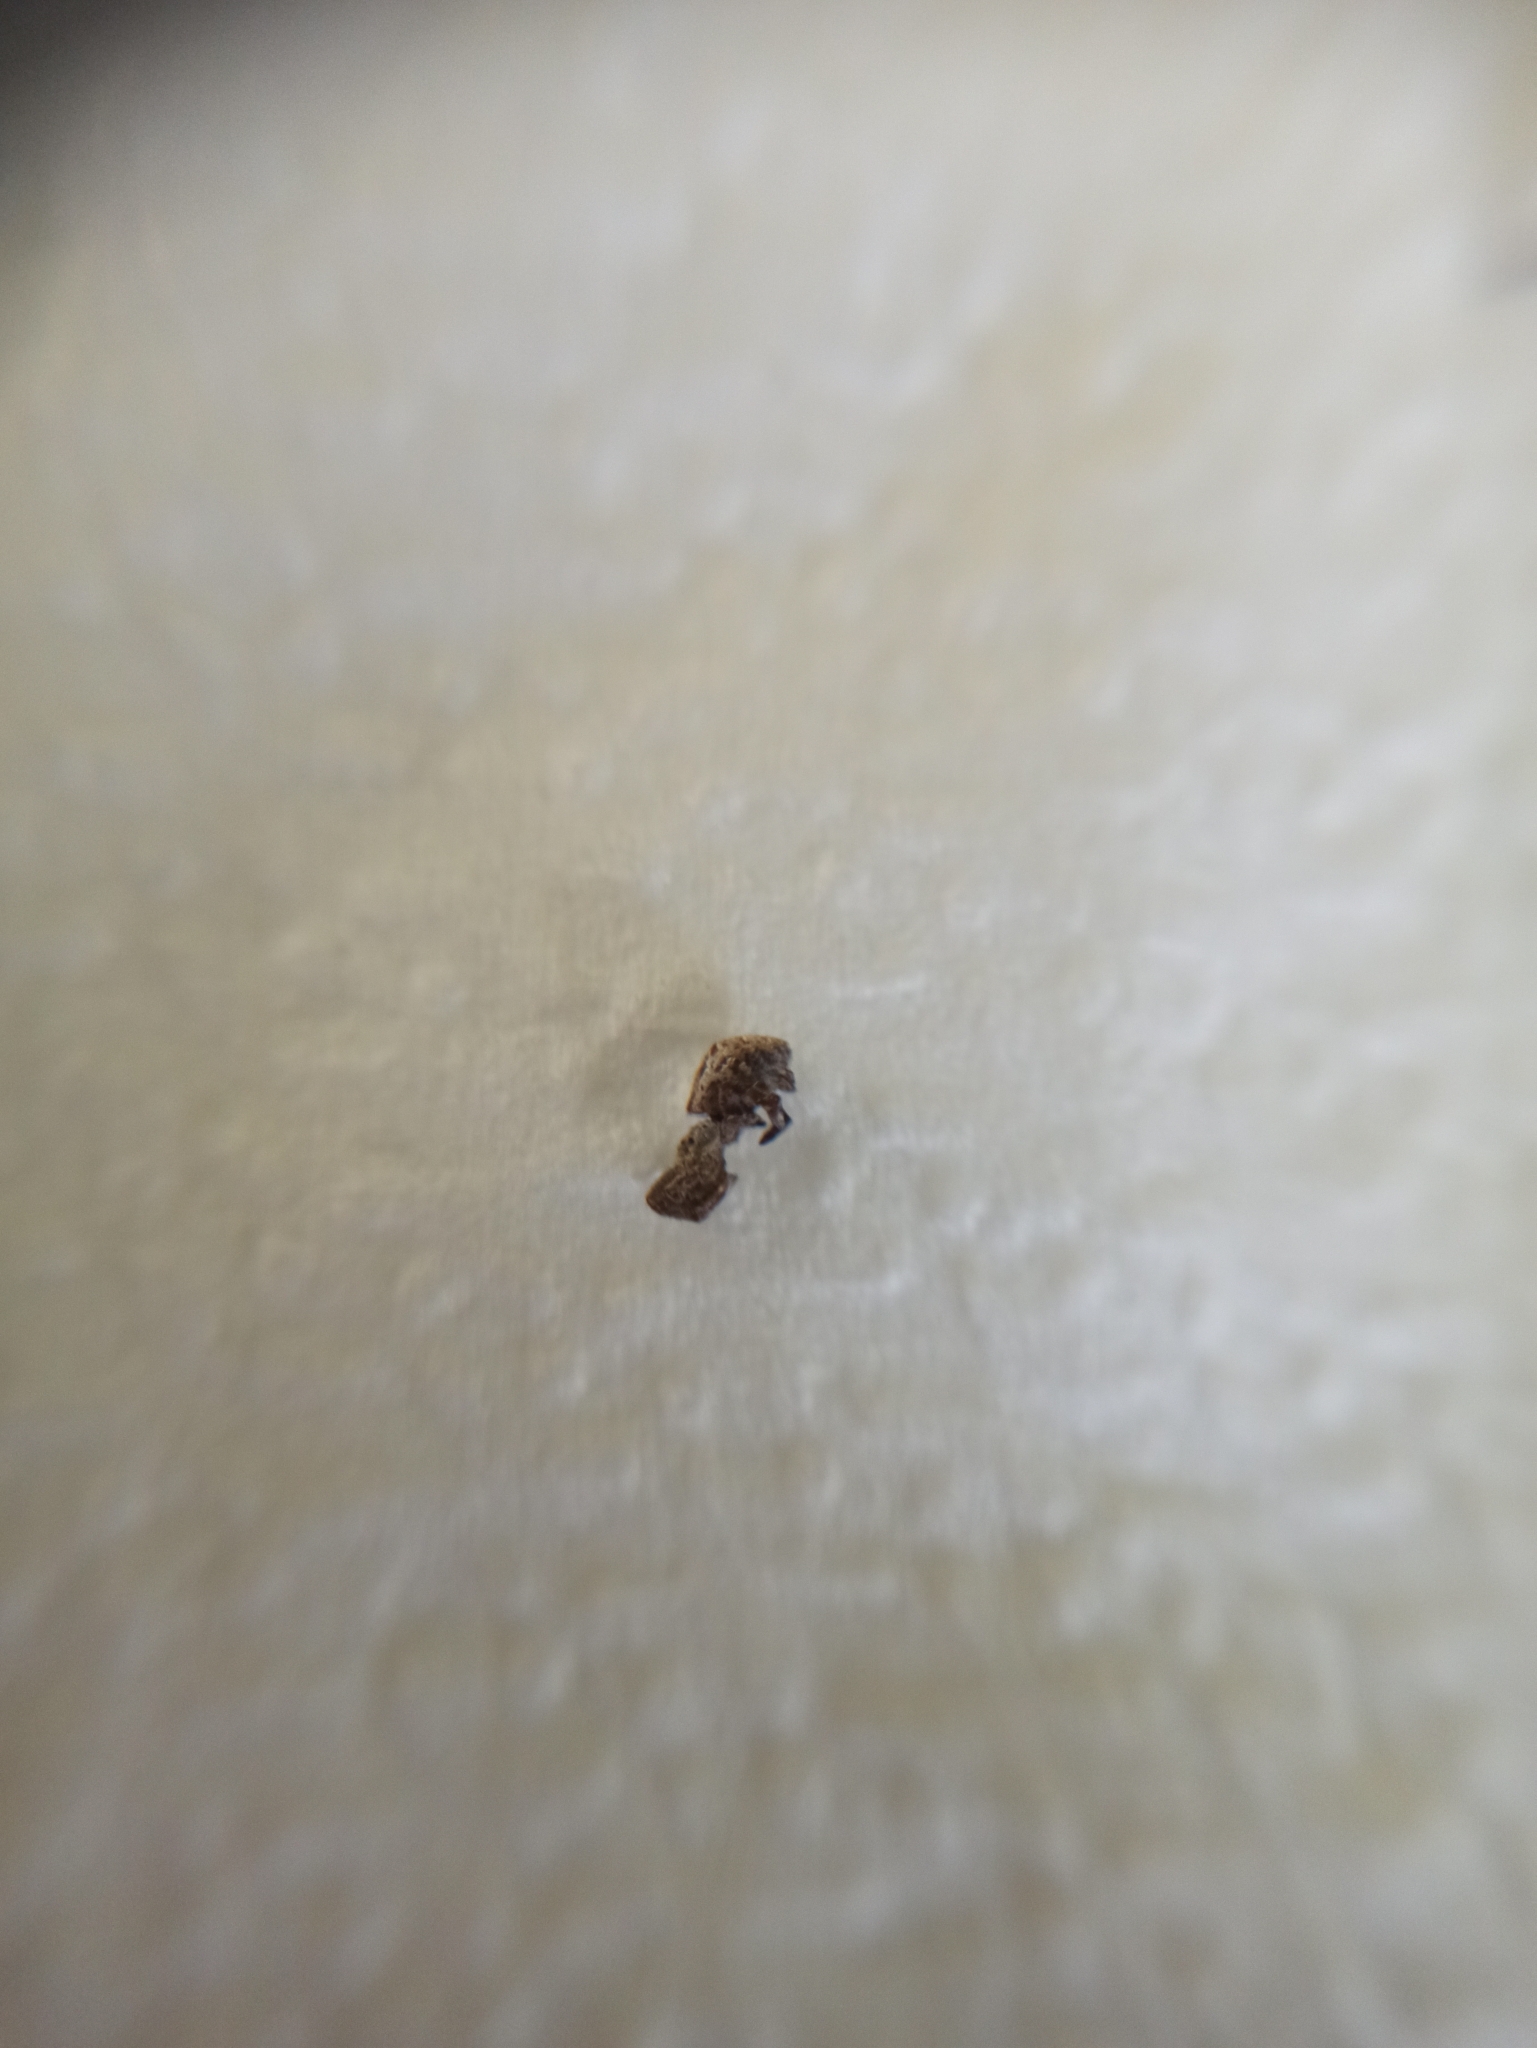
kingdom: Animalia
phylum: Arthropoda
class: Arachnida
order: Araneae
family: Uloboridae
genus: Hyptiotes
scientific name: Hyptiotes paradoxus
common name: Triangle spider
